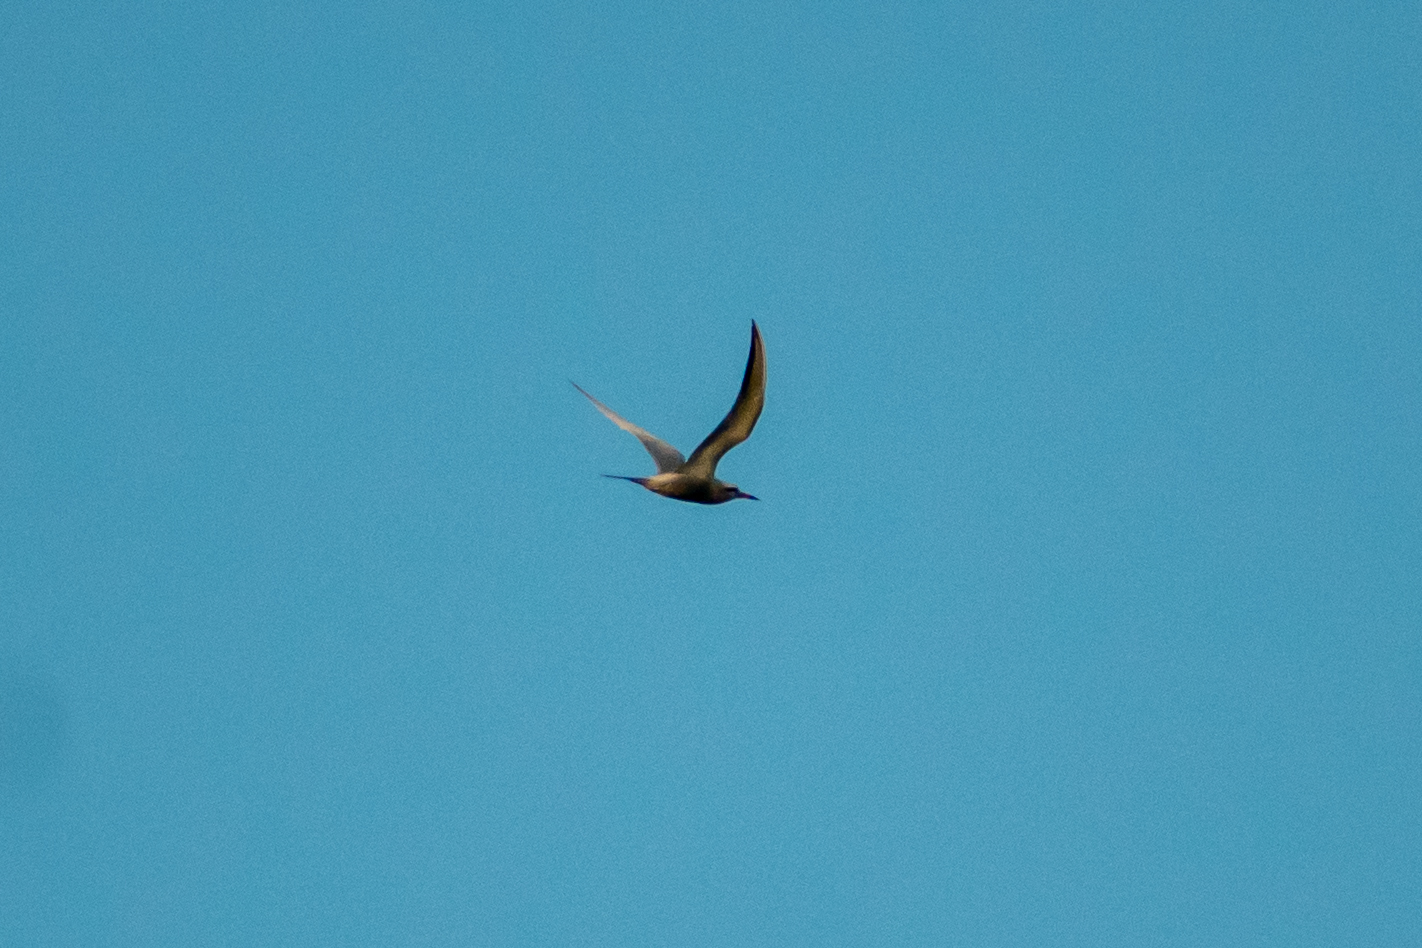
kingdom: Animalia
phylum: Chordata
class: Aves
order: Charadriiformes
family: Laridae
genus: Sterna
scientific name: Sterna trudeaui
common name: Snowy-crowned tern
